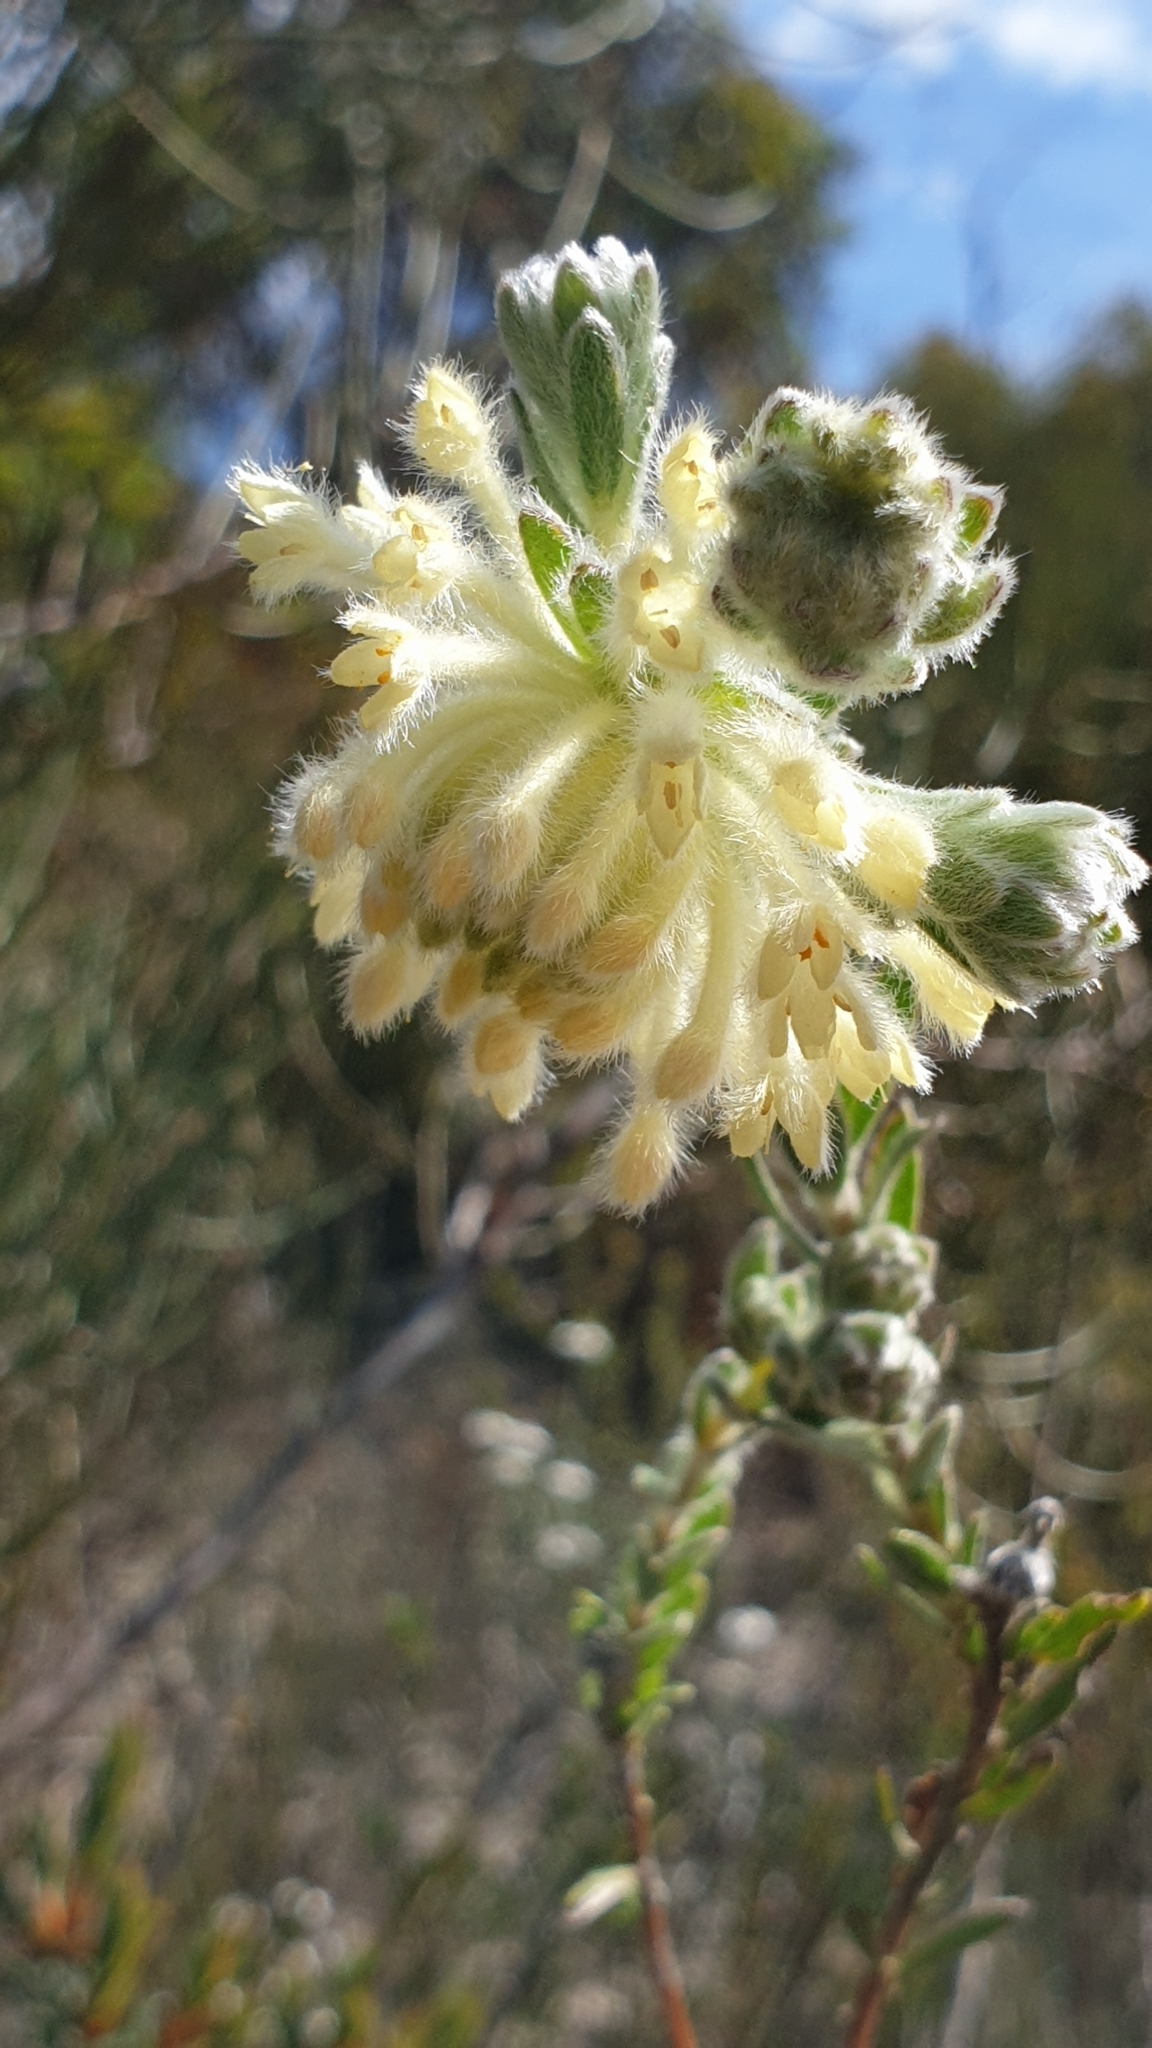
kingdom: Plantae
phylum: Tracheophyta
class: Magnoliopsida
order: Malvales
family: Thymelaeaceae
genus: Pimelea
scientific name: Pimelea octophylla
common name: Woolly riceflower
